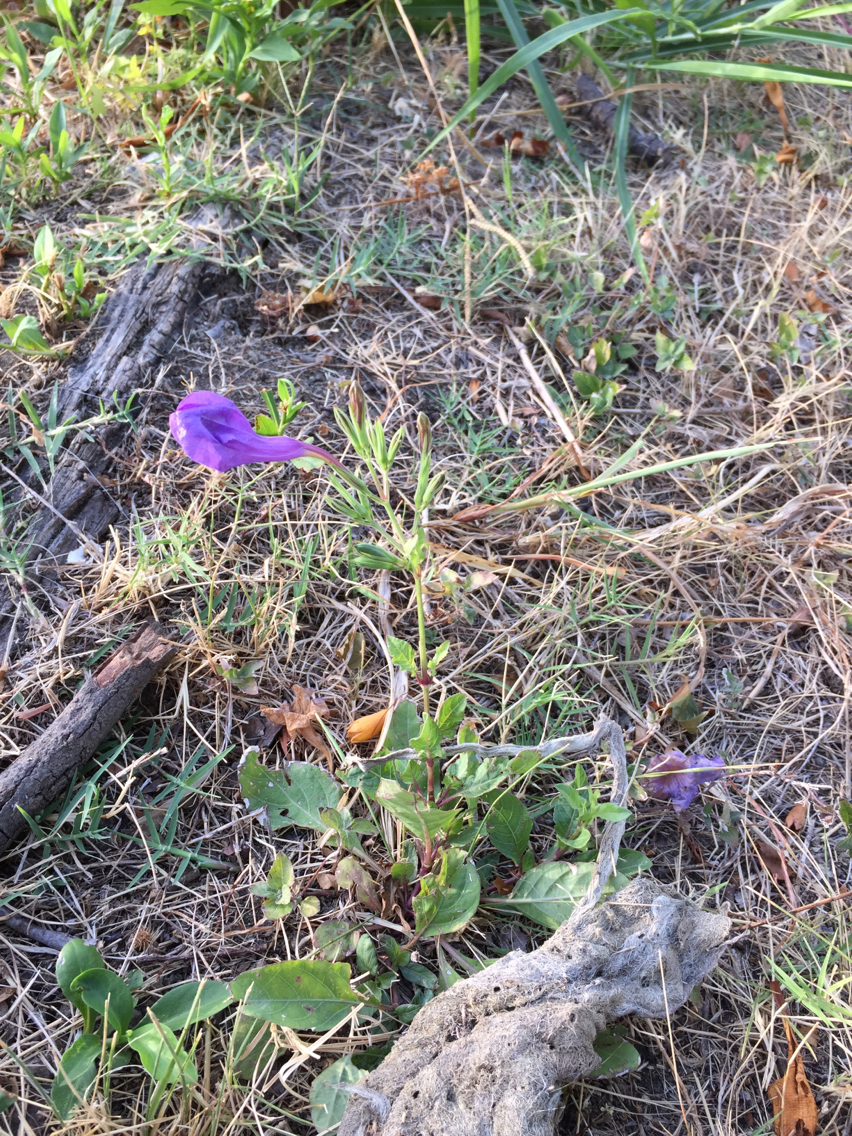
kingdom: Plantae
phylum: Tracheophyta
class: Magnoliopsida
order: Lamiales
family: Acanthaceae
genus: Ruellia
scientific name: Ruellia ciliatiflora
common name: Hairyflower wild petunia
